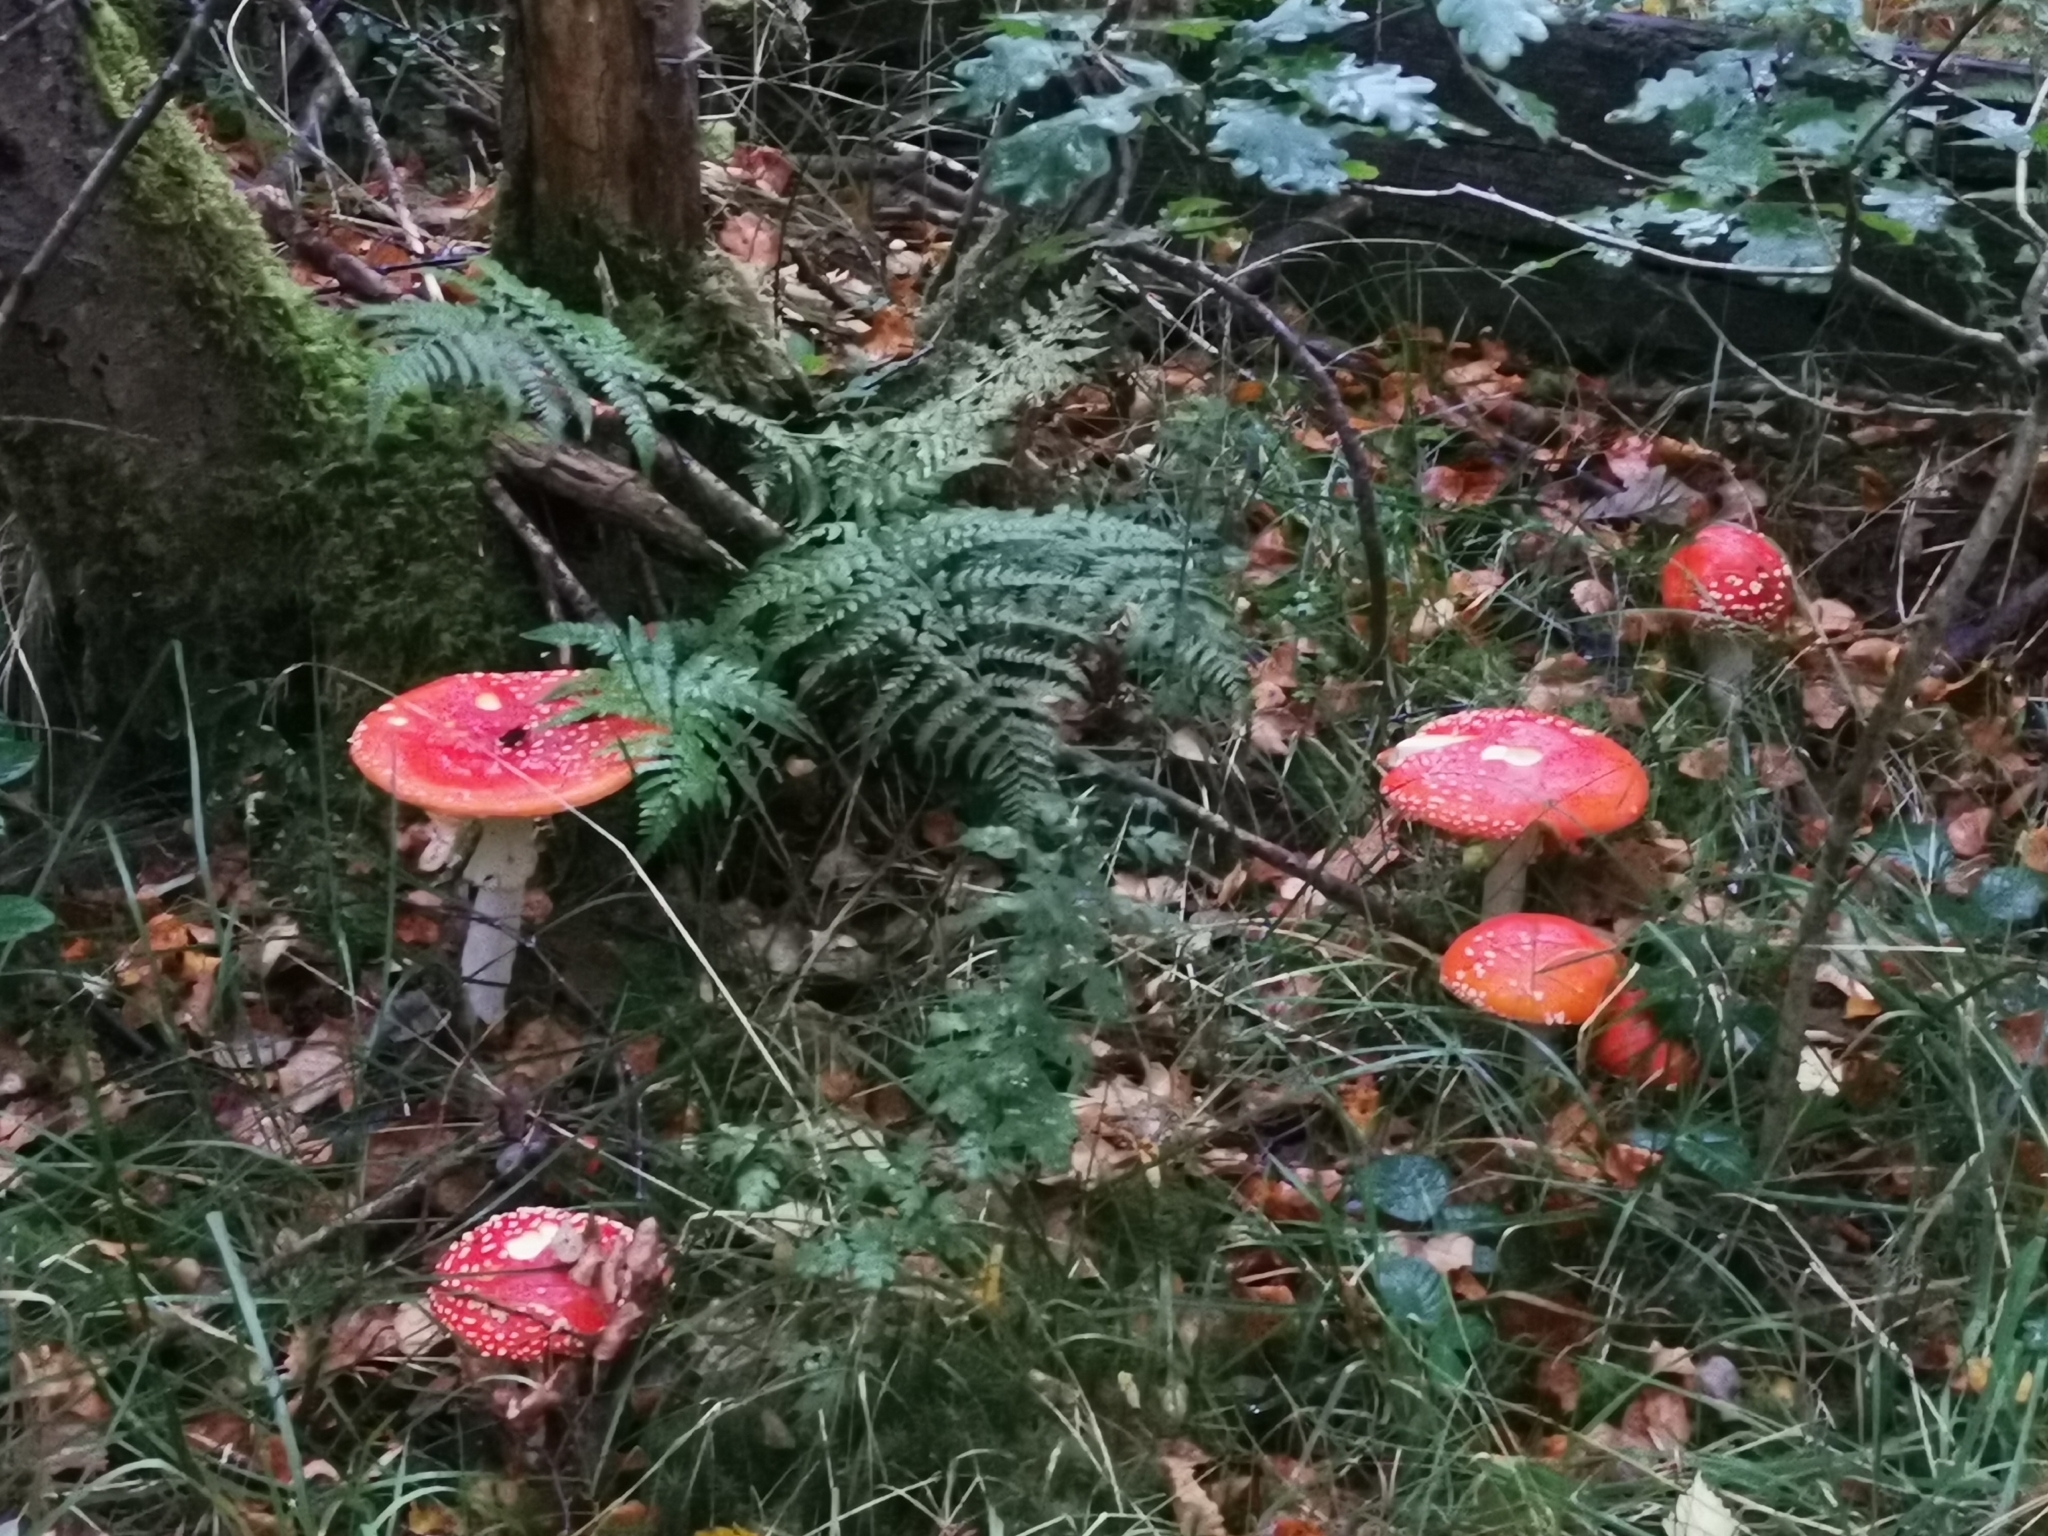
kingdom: Fungi
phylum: Basidiomycota
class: Agaricomycetes
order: Agaricales
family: Amanitaceae
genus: Amanita
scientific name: Amanita muscaria
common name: Fly agaric
